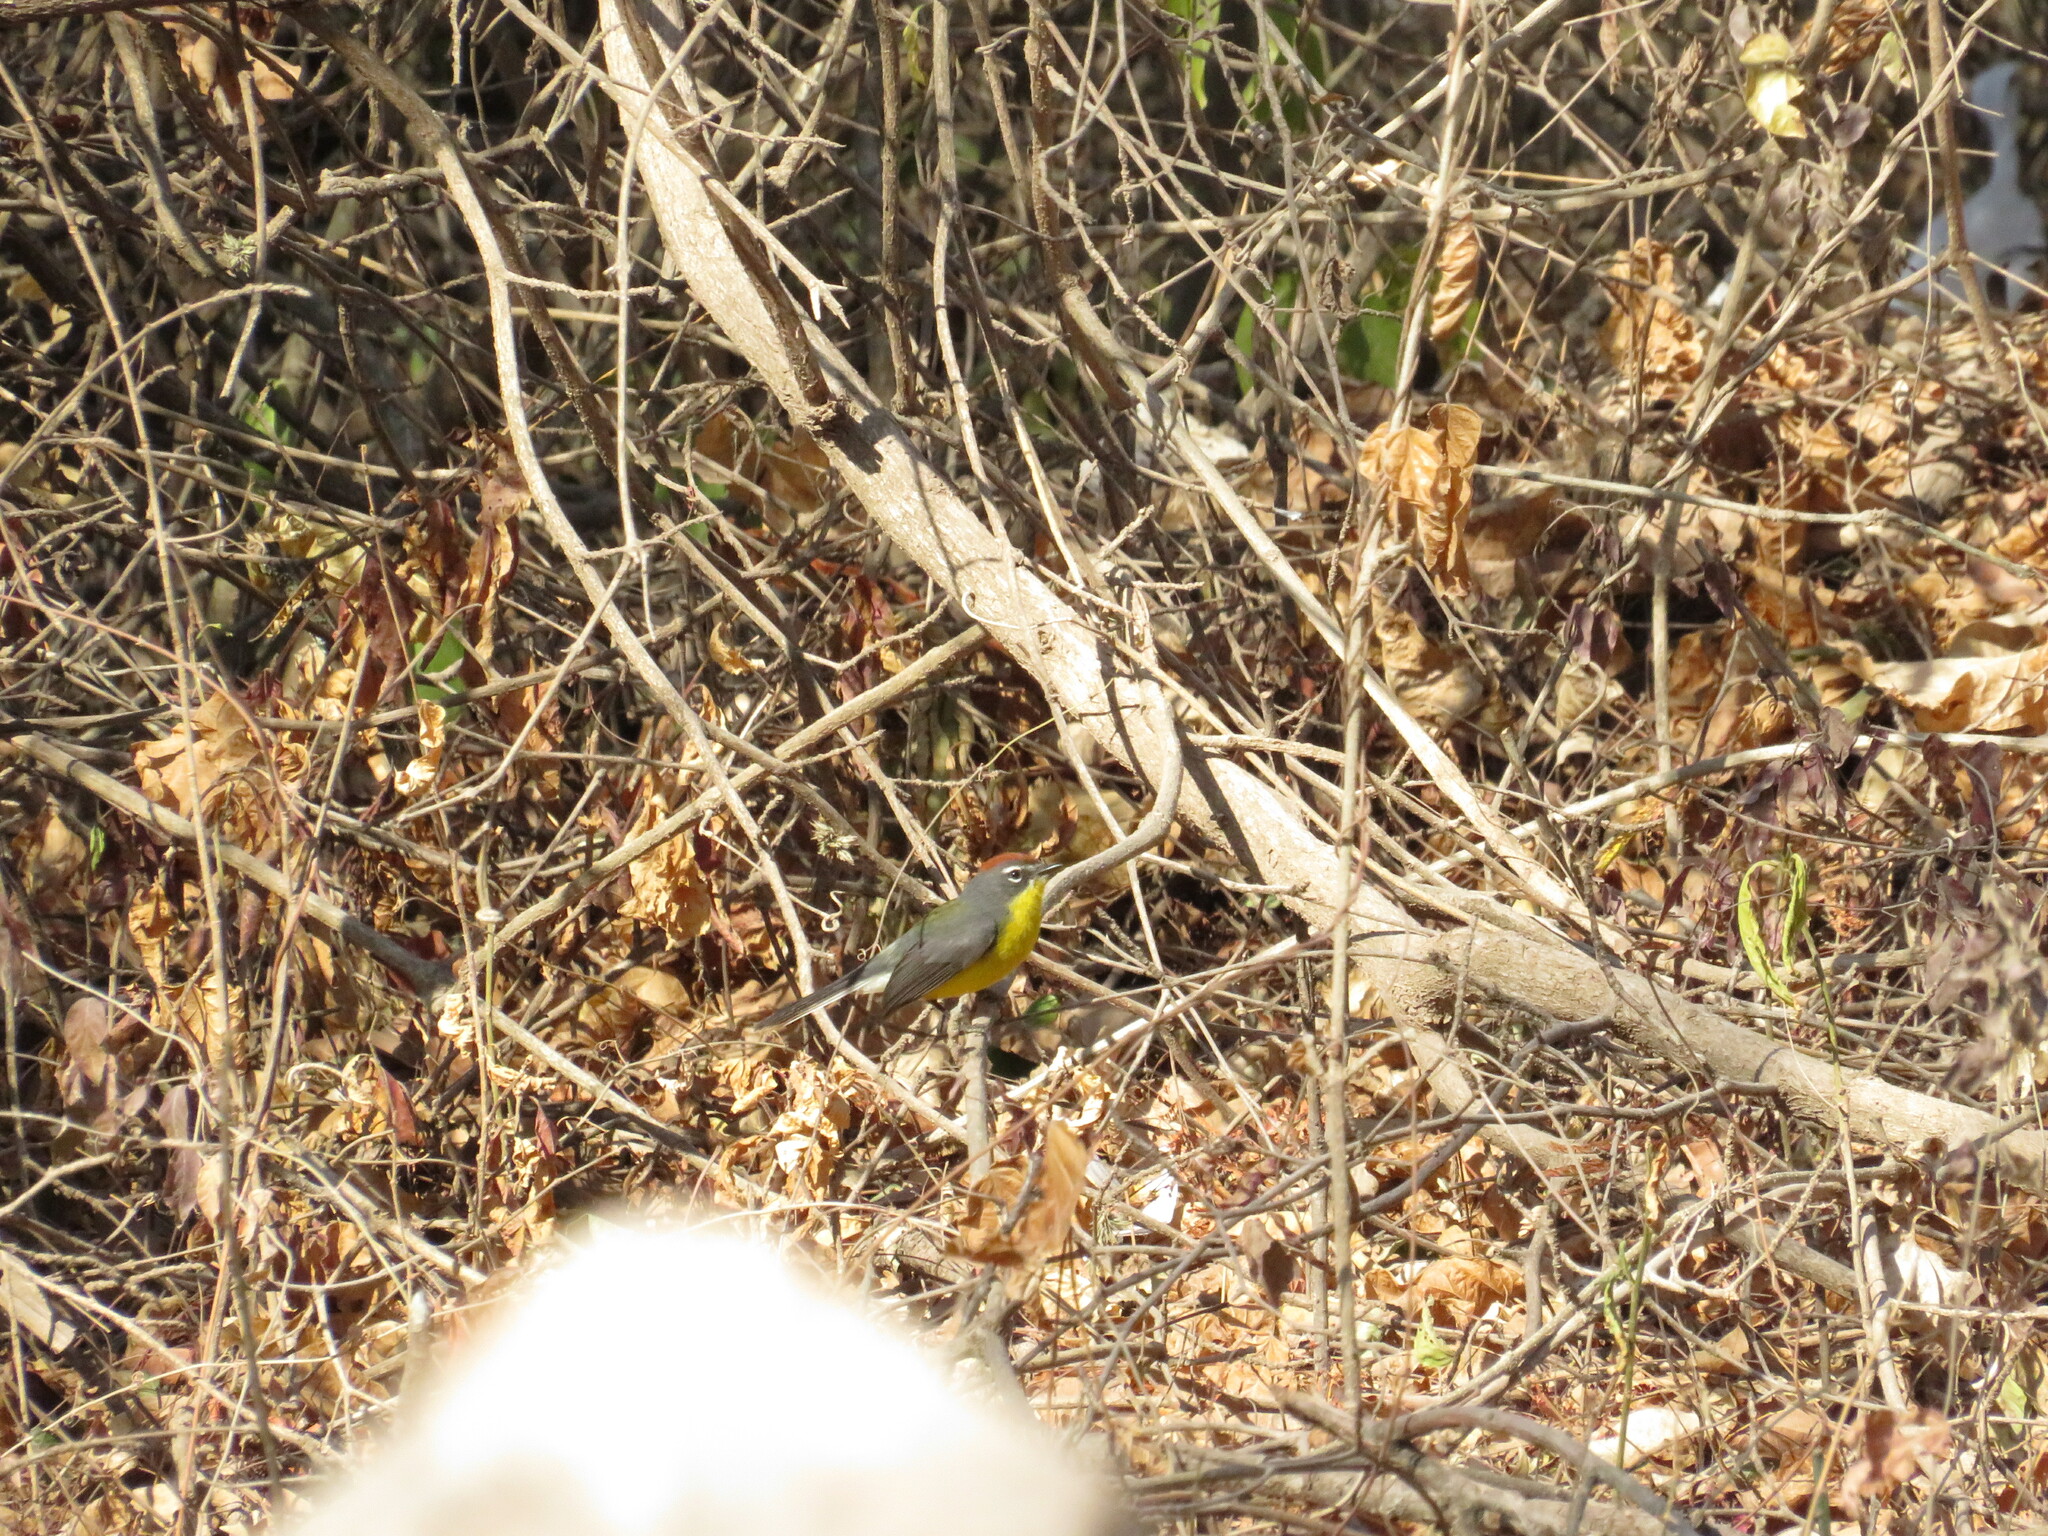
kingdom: Animalia
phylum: Chordata
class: Aves
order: Passeriformes
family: Parulidae
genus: Myioborus
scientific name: Myioborus brunniceps
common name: Brown-capped whitestart
